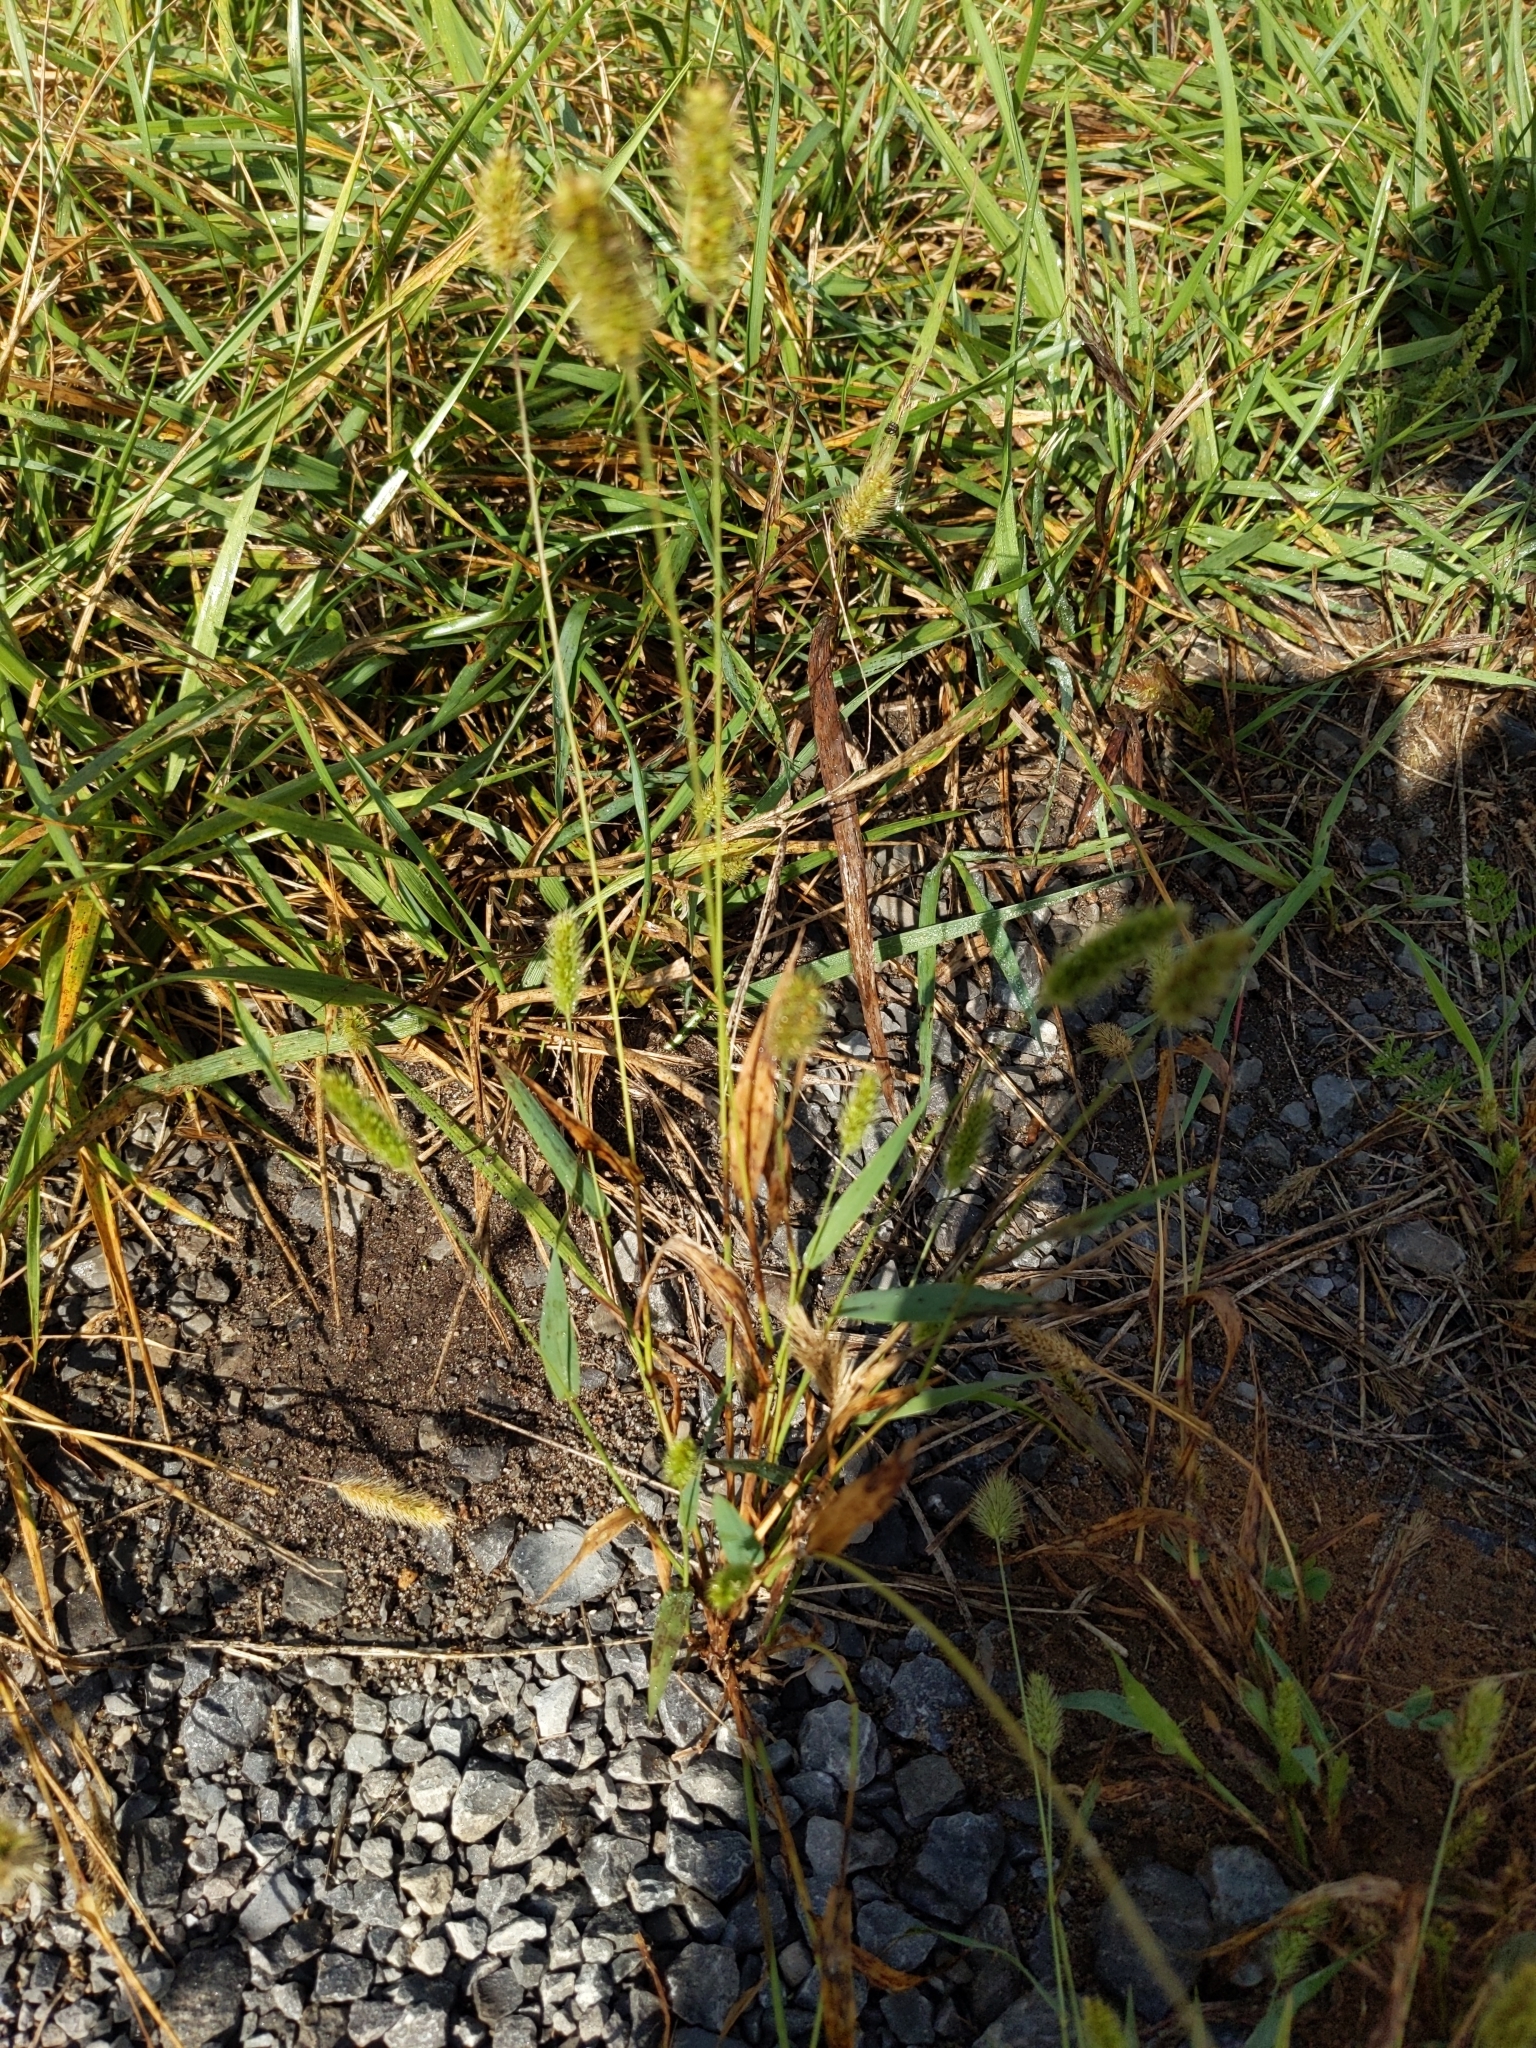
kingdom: Plantae
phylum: Tracheophyta
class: Liliopsida
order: Poales
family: Poaceae
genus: Setaria
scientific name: Setaria viridis
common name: Green bristlegrass
